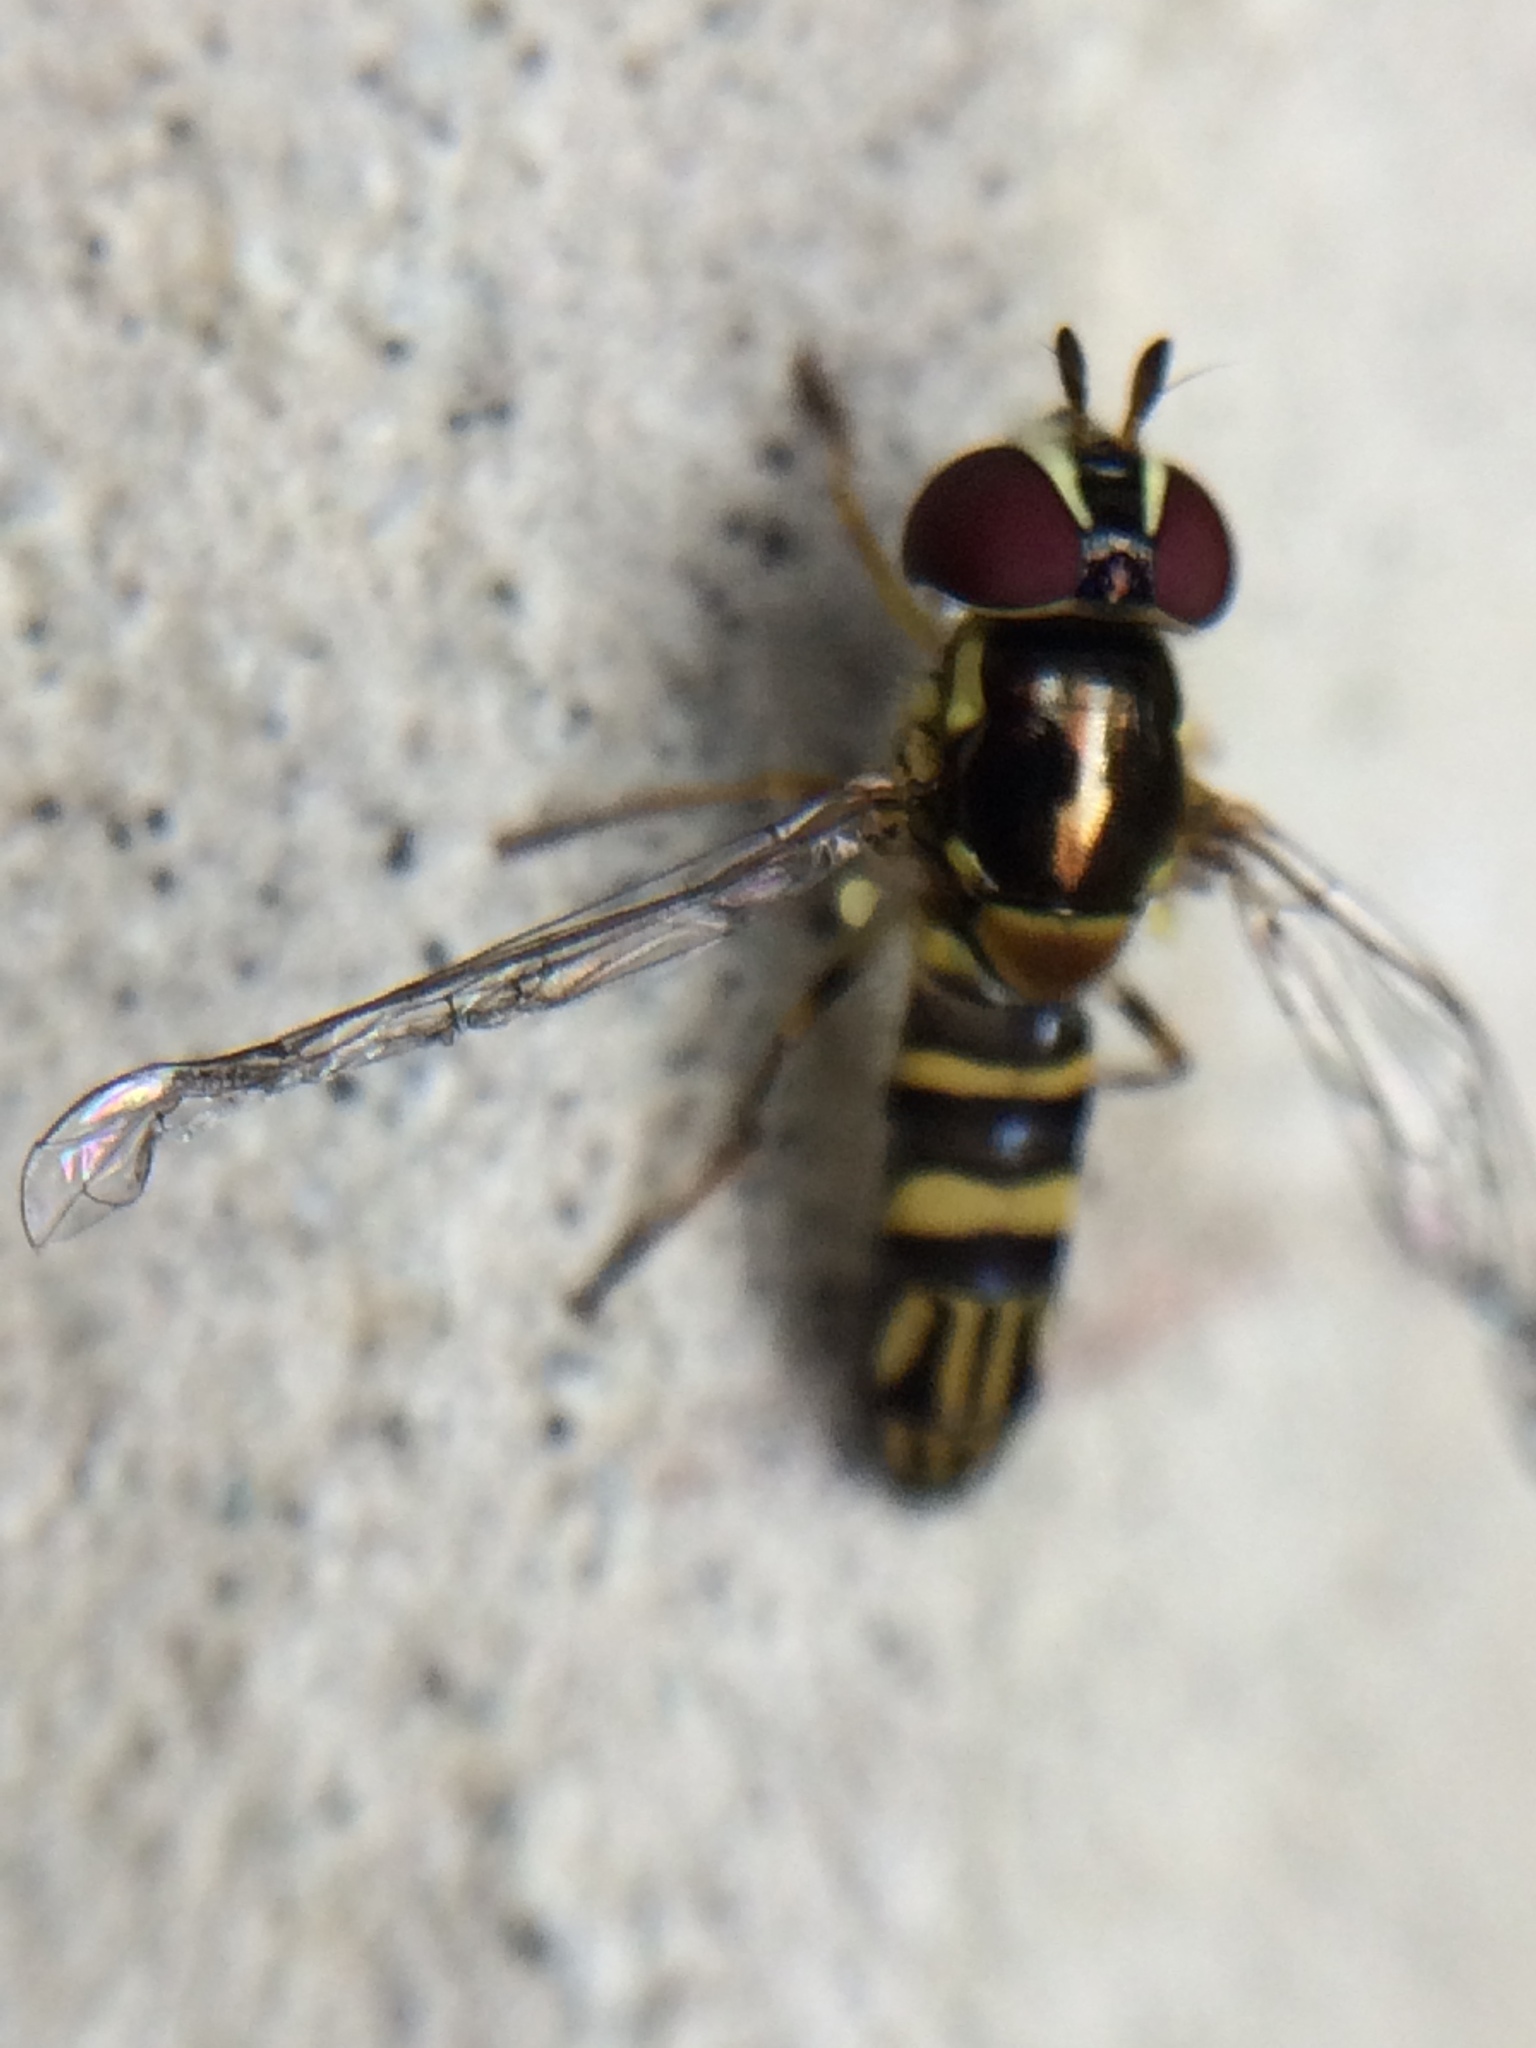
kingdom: Animalia
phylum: Arthropoda
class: Insecta
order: Diptera
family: Syrphidae
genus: Allograpta
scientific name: Allograpta obliqua
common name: Common oblique syrphid
